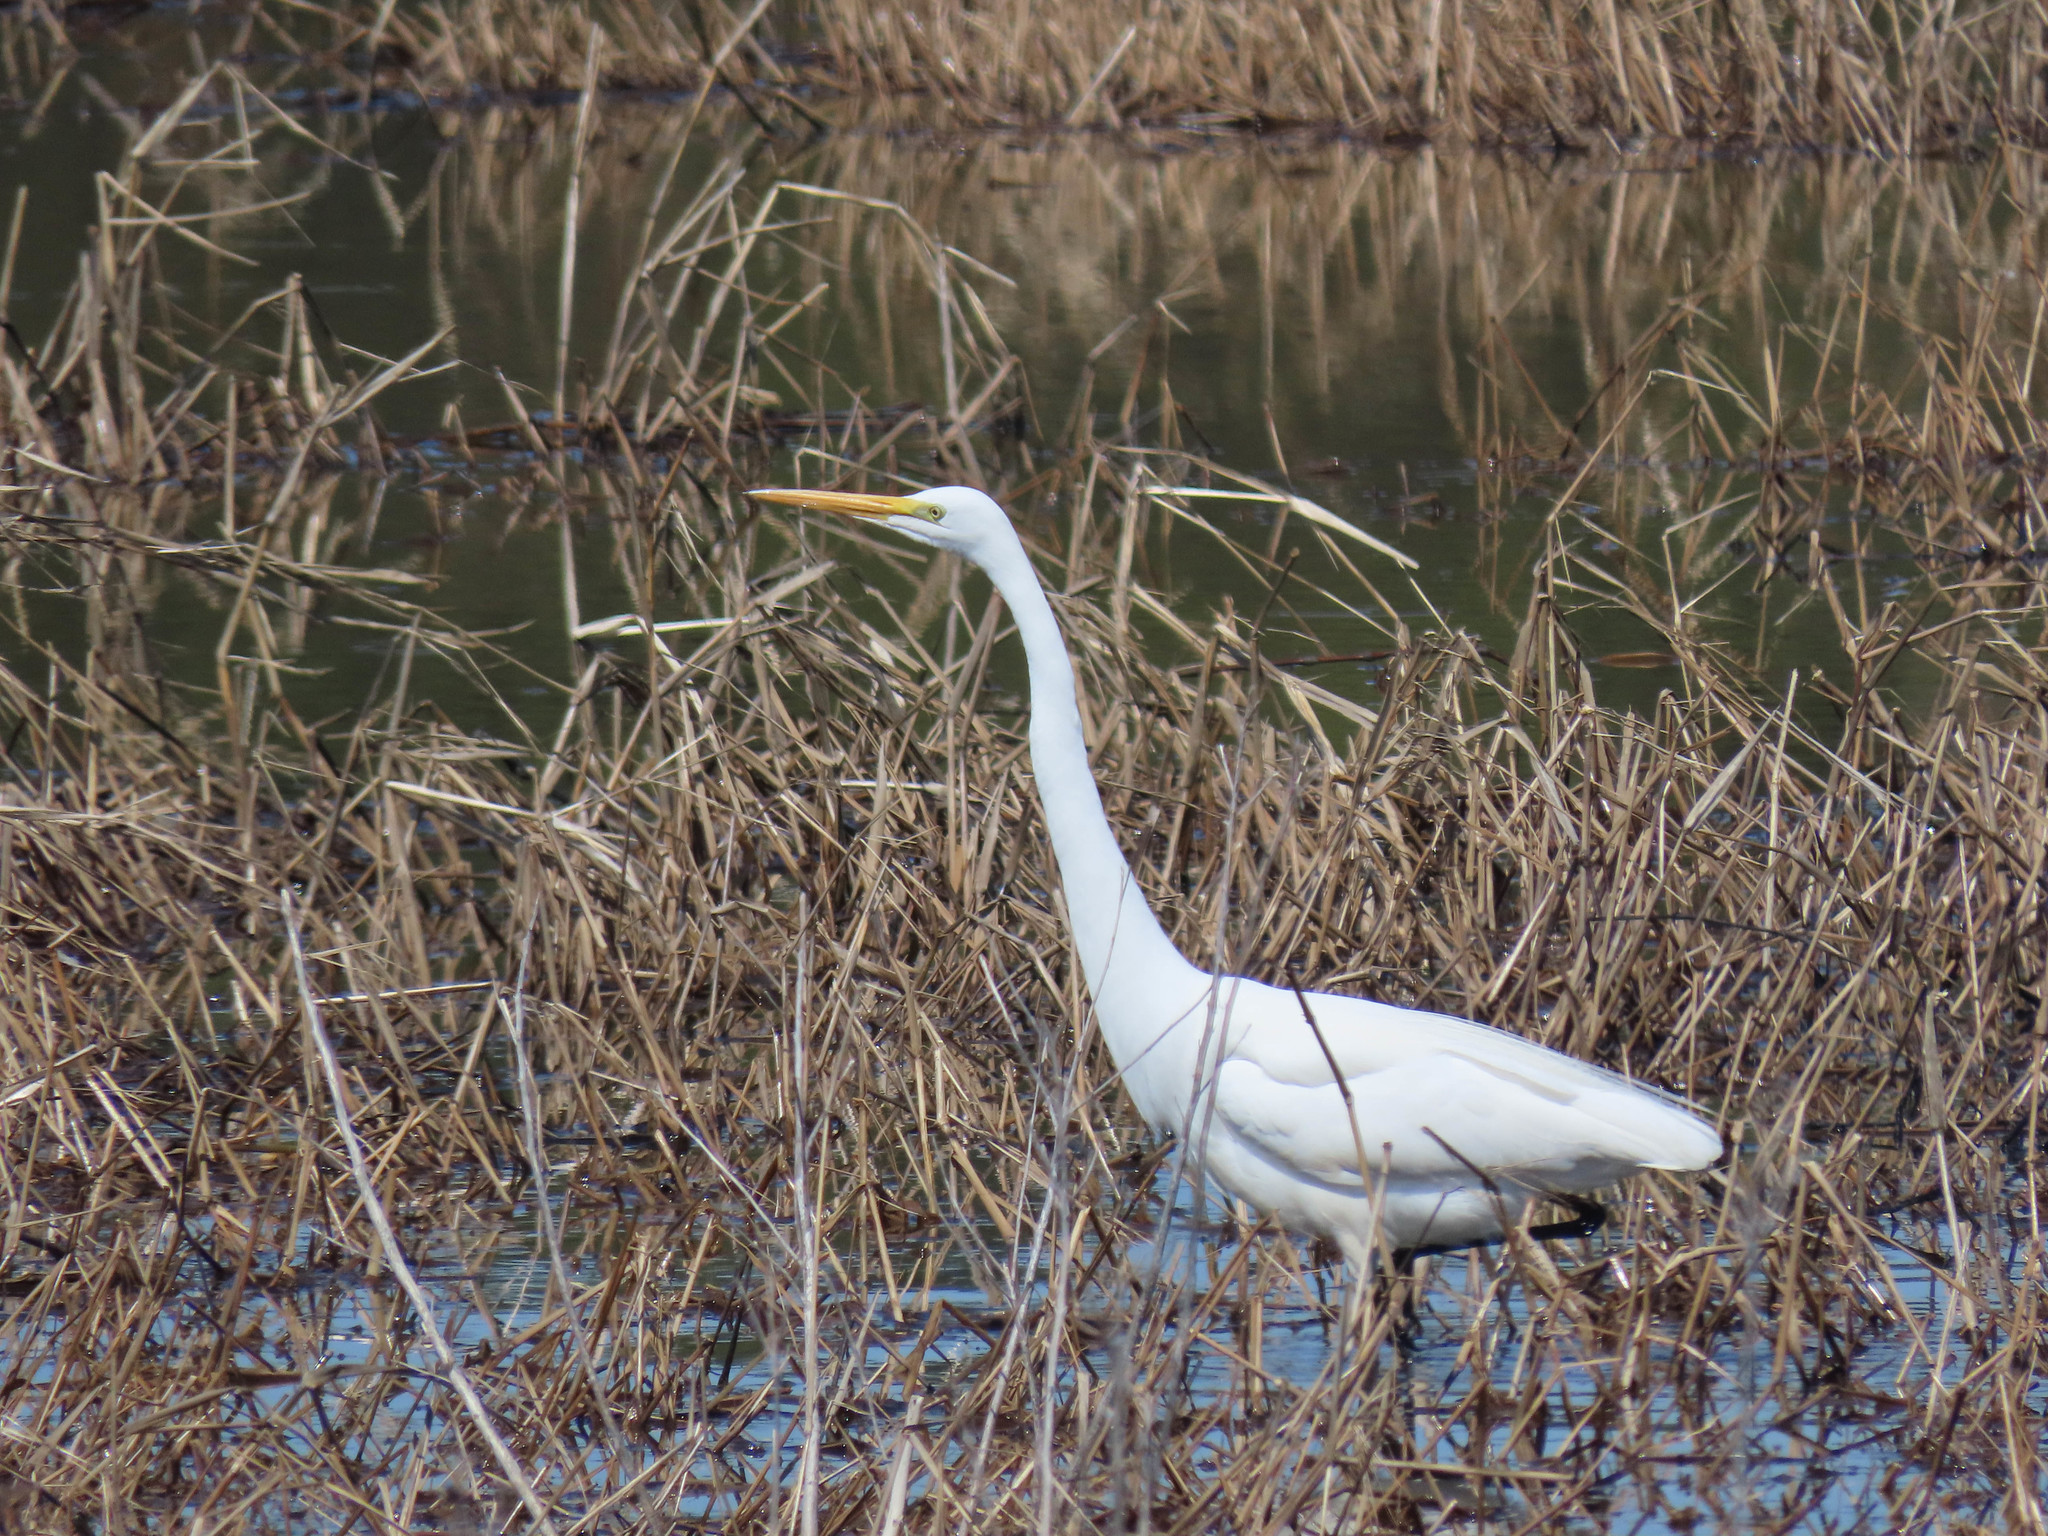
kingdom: Animalia
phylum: Chordata
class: Aves
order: Pelecaniformes
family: Ardeidae
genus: Ardea
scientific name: Ardea alba
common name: Great egret
